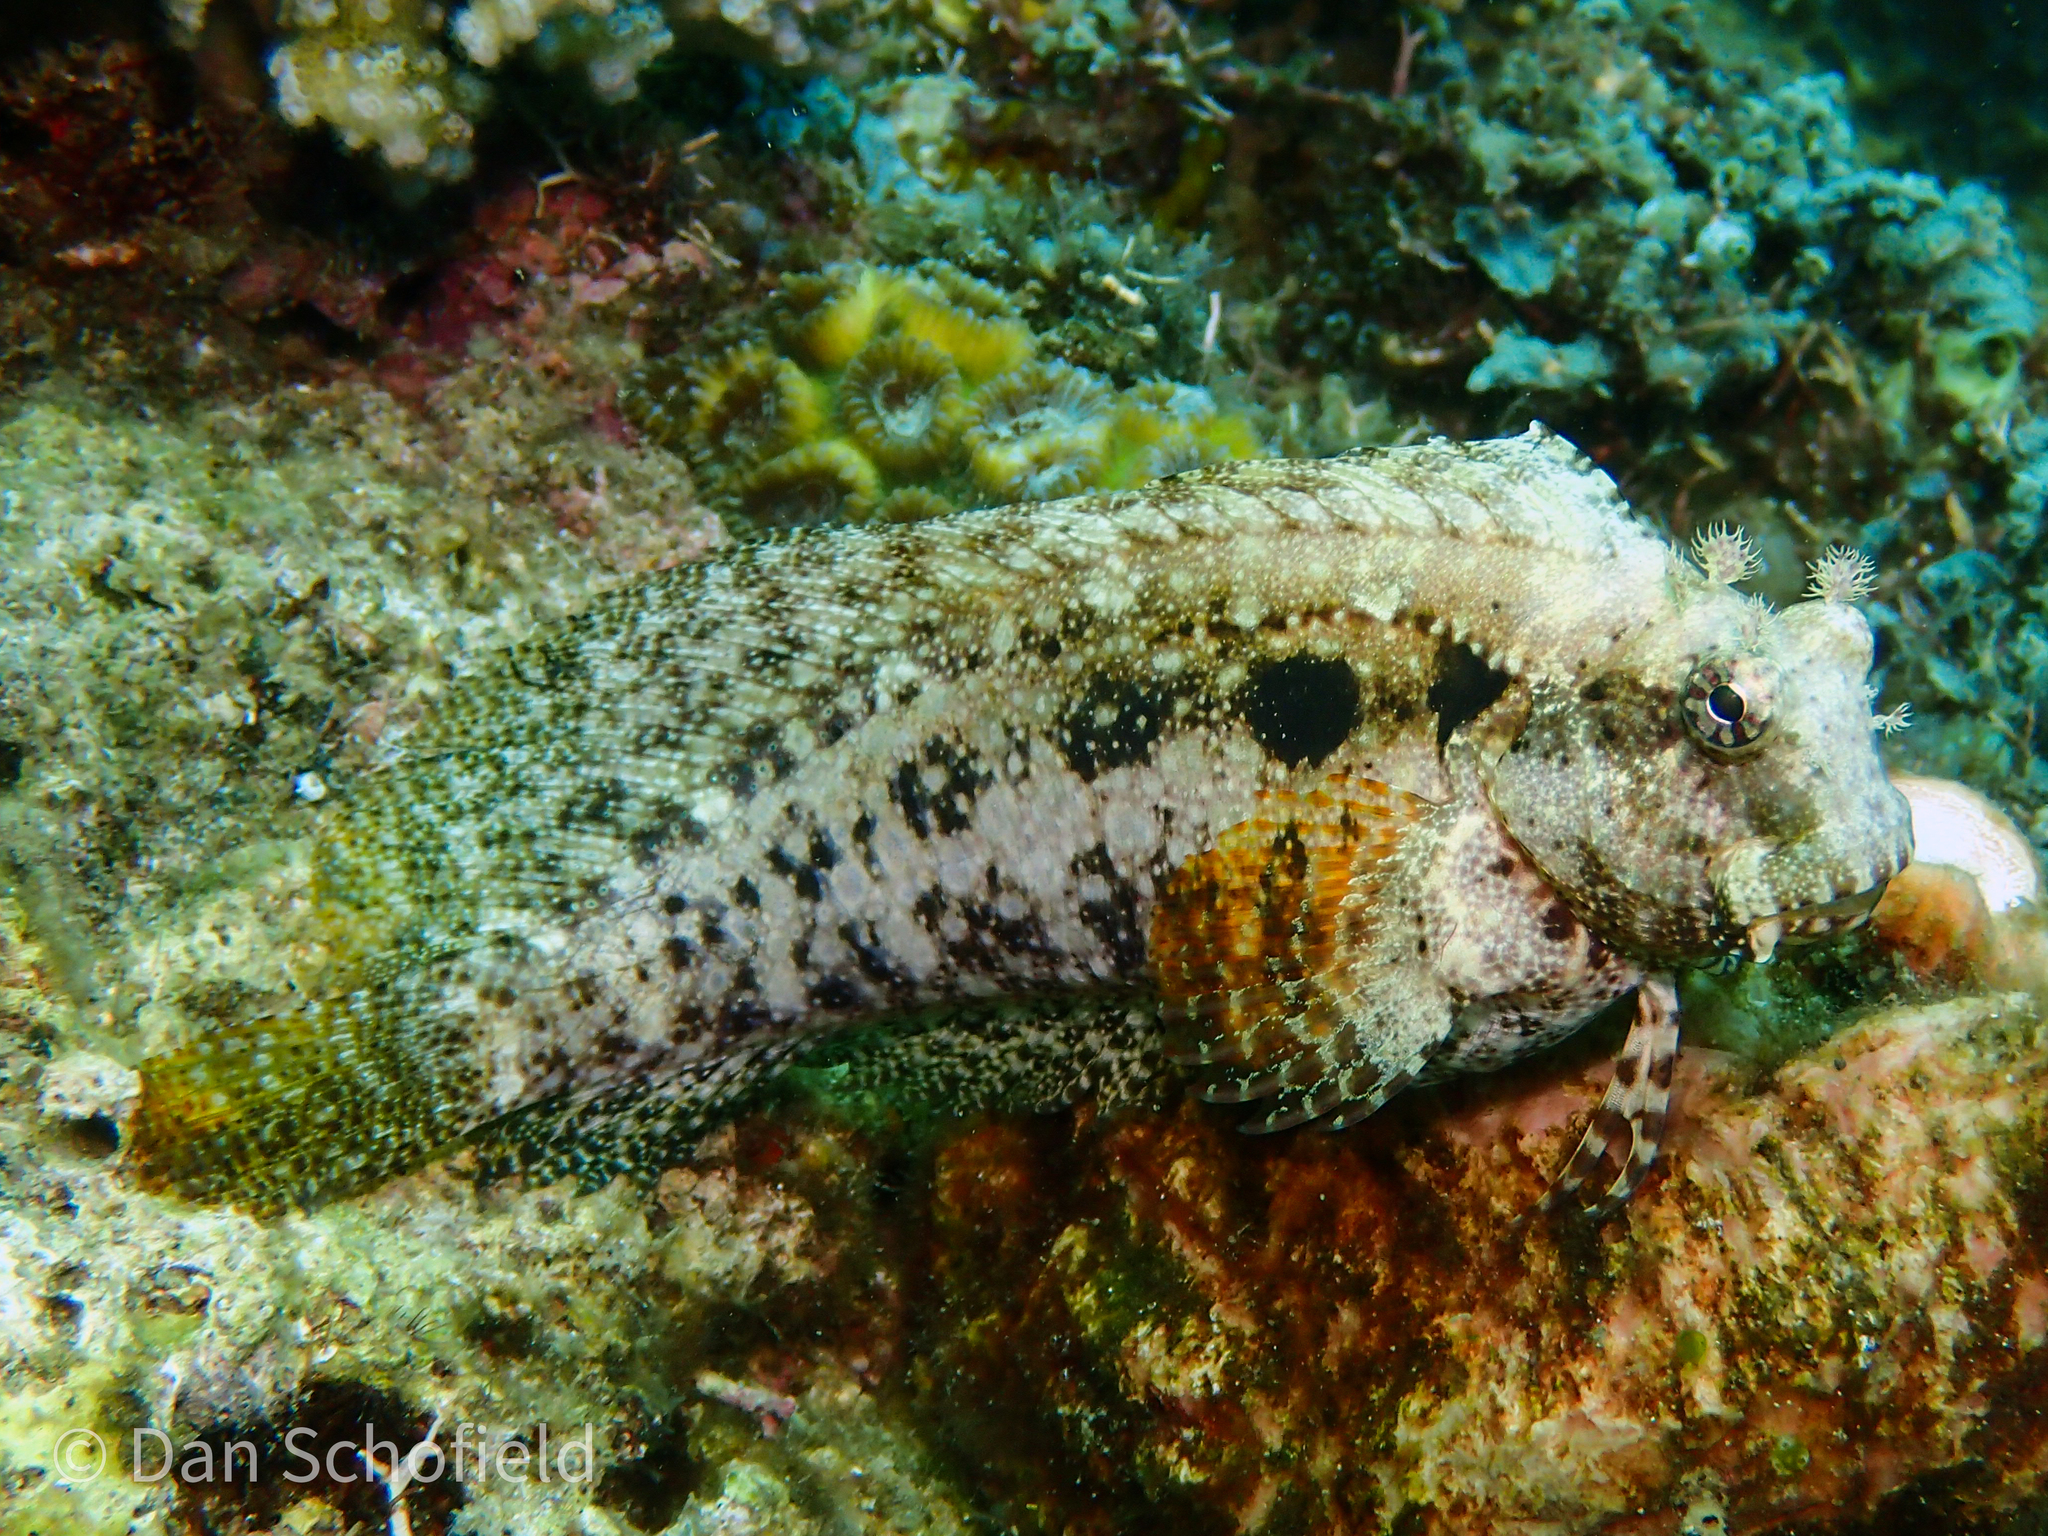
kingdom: Animalia
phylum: Chordata
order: Perciformes
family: Blenniidae
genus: Salarias
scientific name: Salarias ceramensis
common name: Seram blenny
